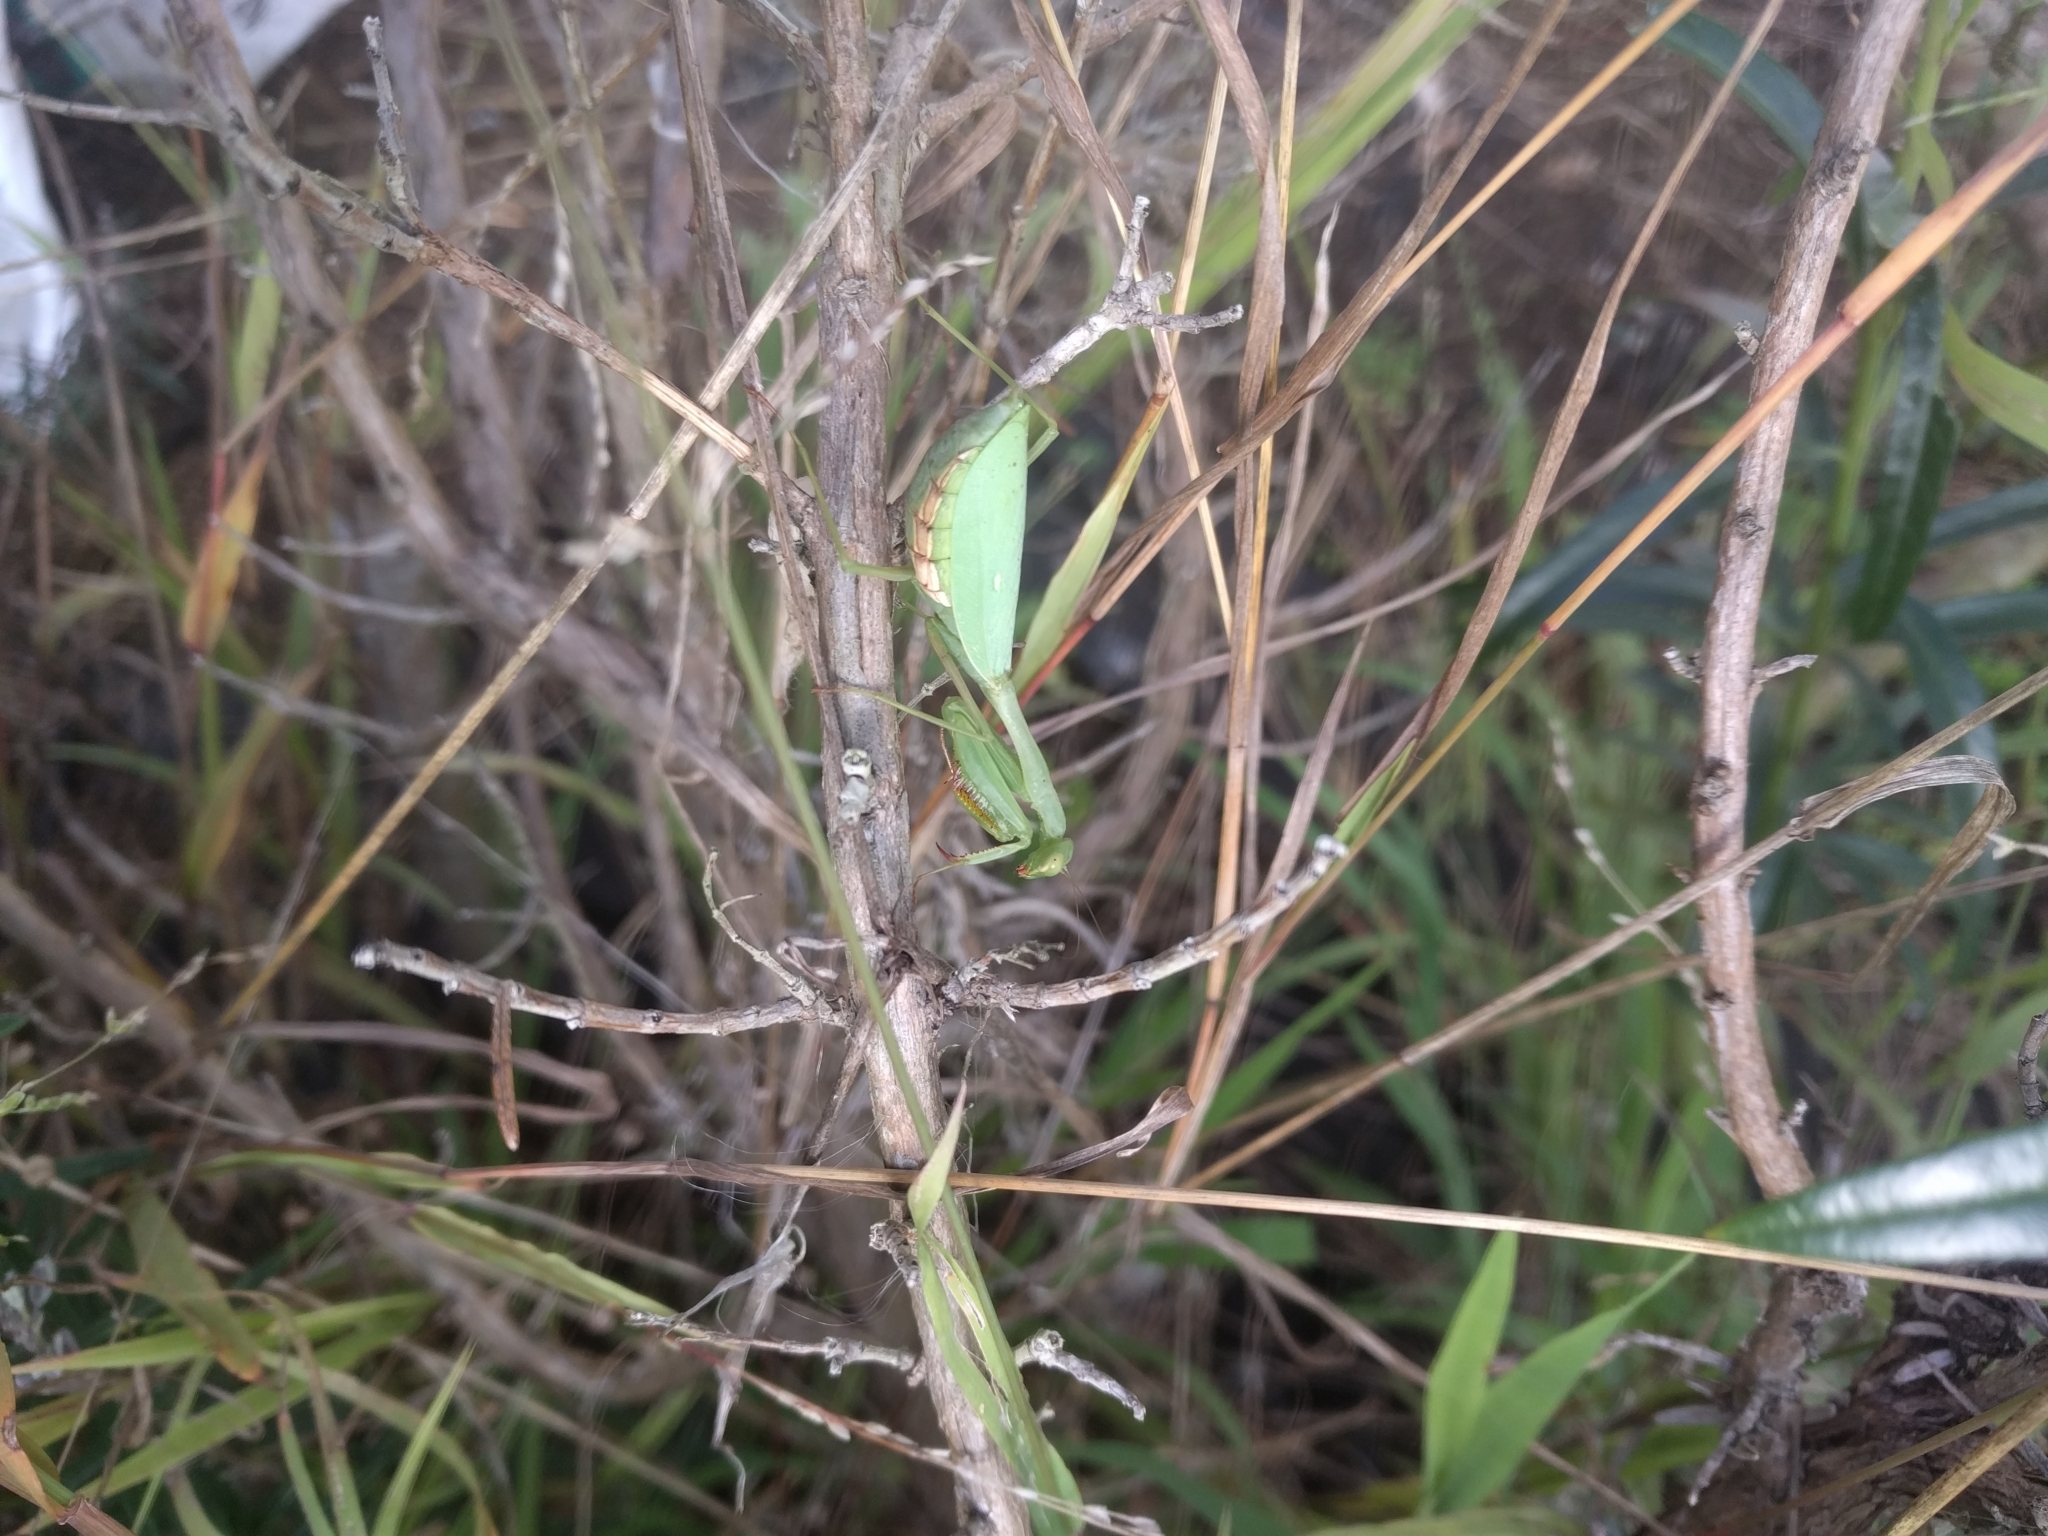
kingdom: Animalia
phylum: Arthropoda
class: Insecta
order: Mantodea
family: Miomantidae
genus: Miomantis
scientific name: Miomantis caffra
